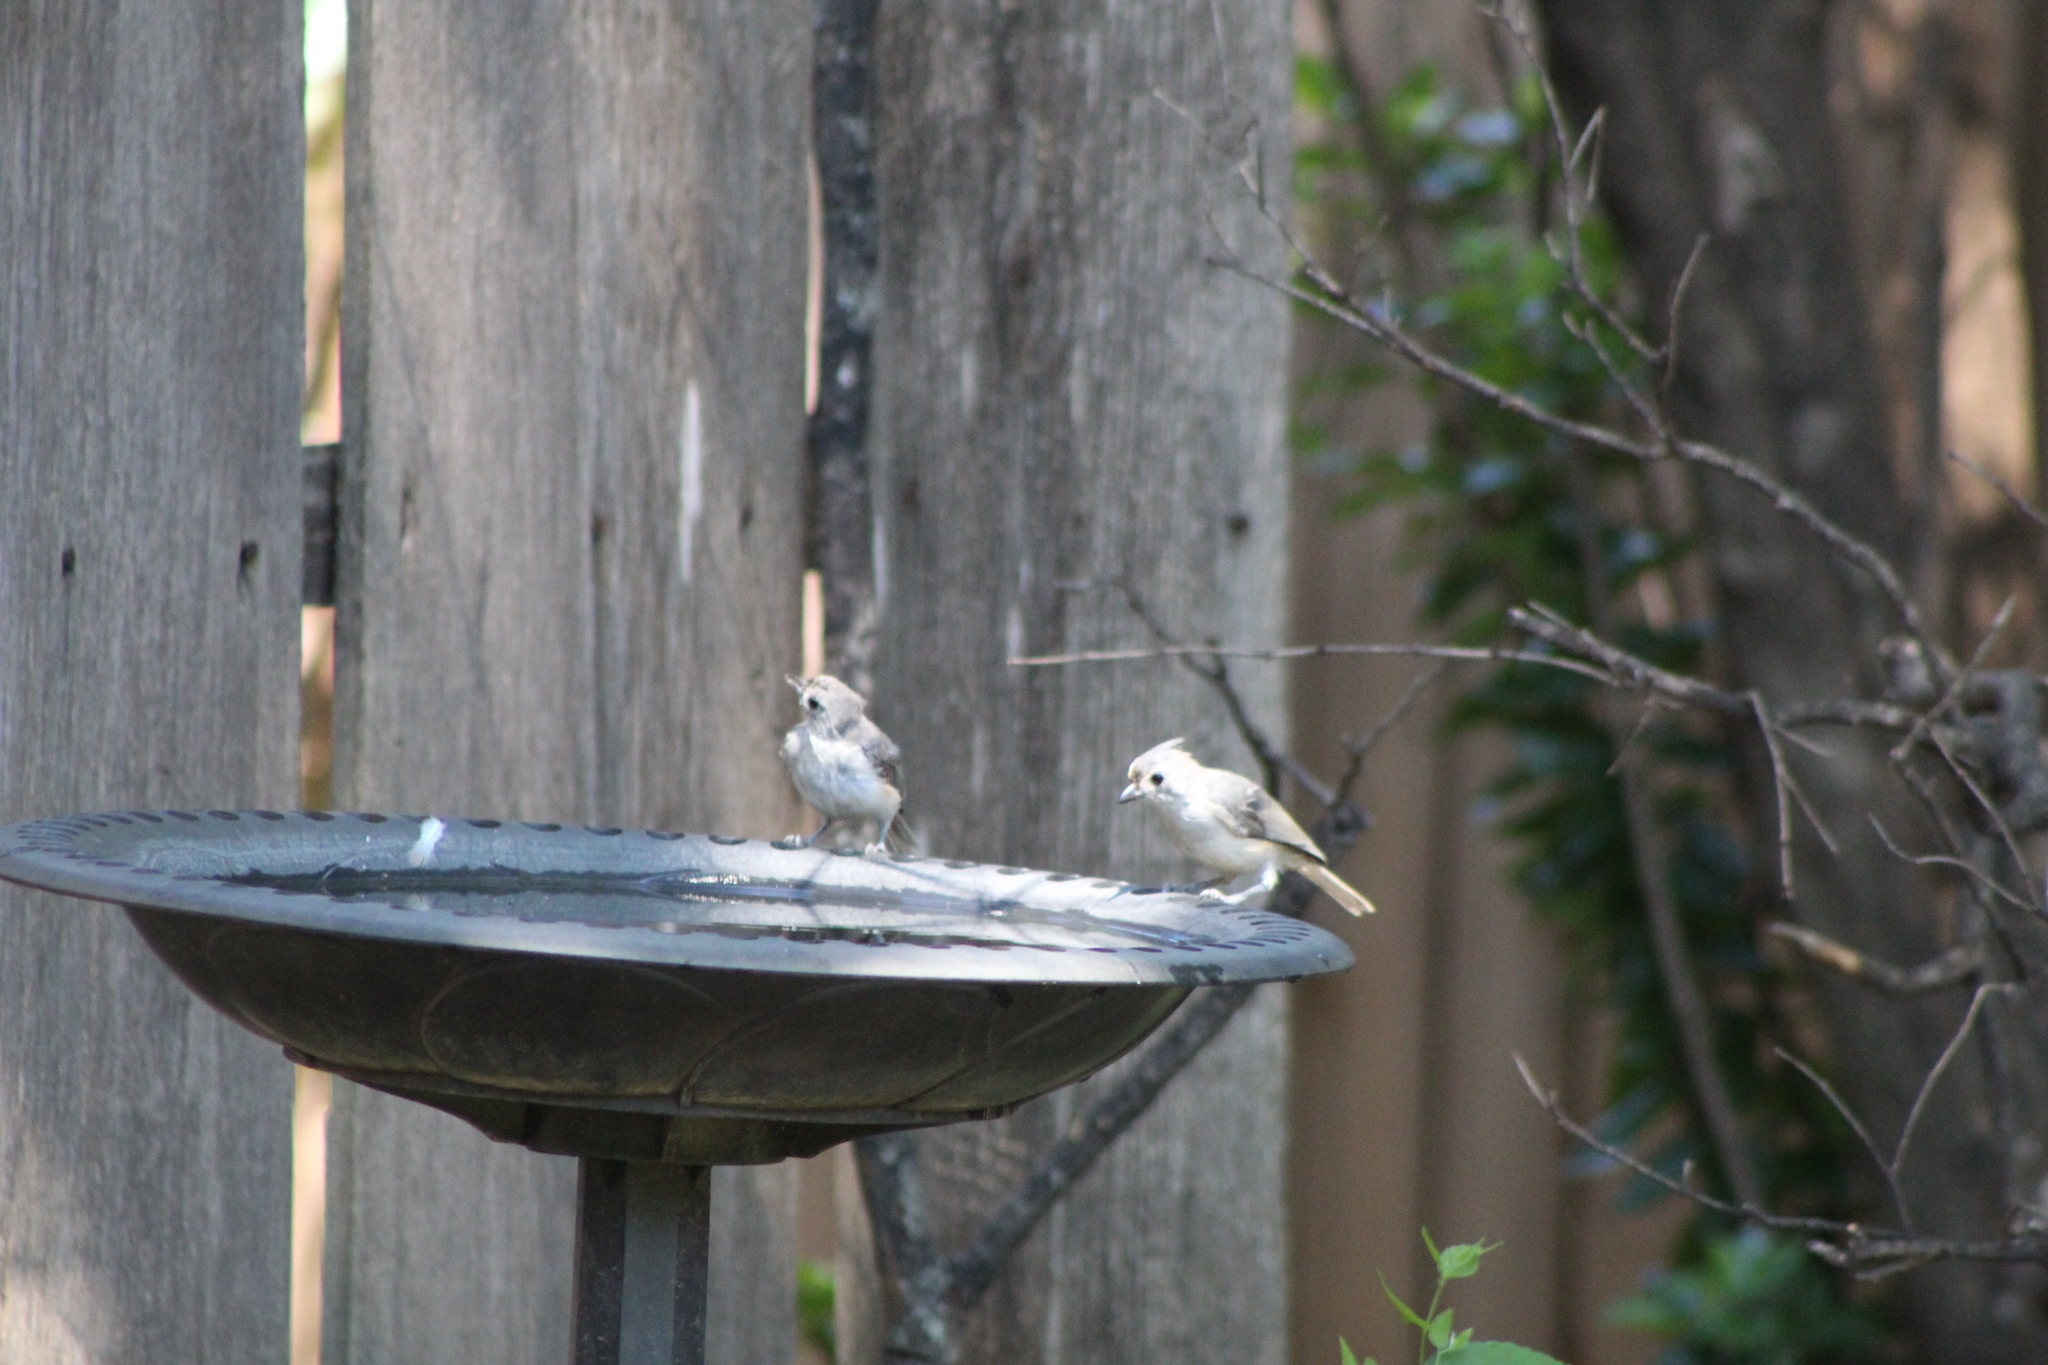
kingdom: Animalia
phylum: Chordata
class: Aves
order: Passeriformes
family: Paridae
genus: Baeolophus
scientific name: Baeolophus bicolor
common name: Tufted titmouse
